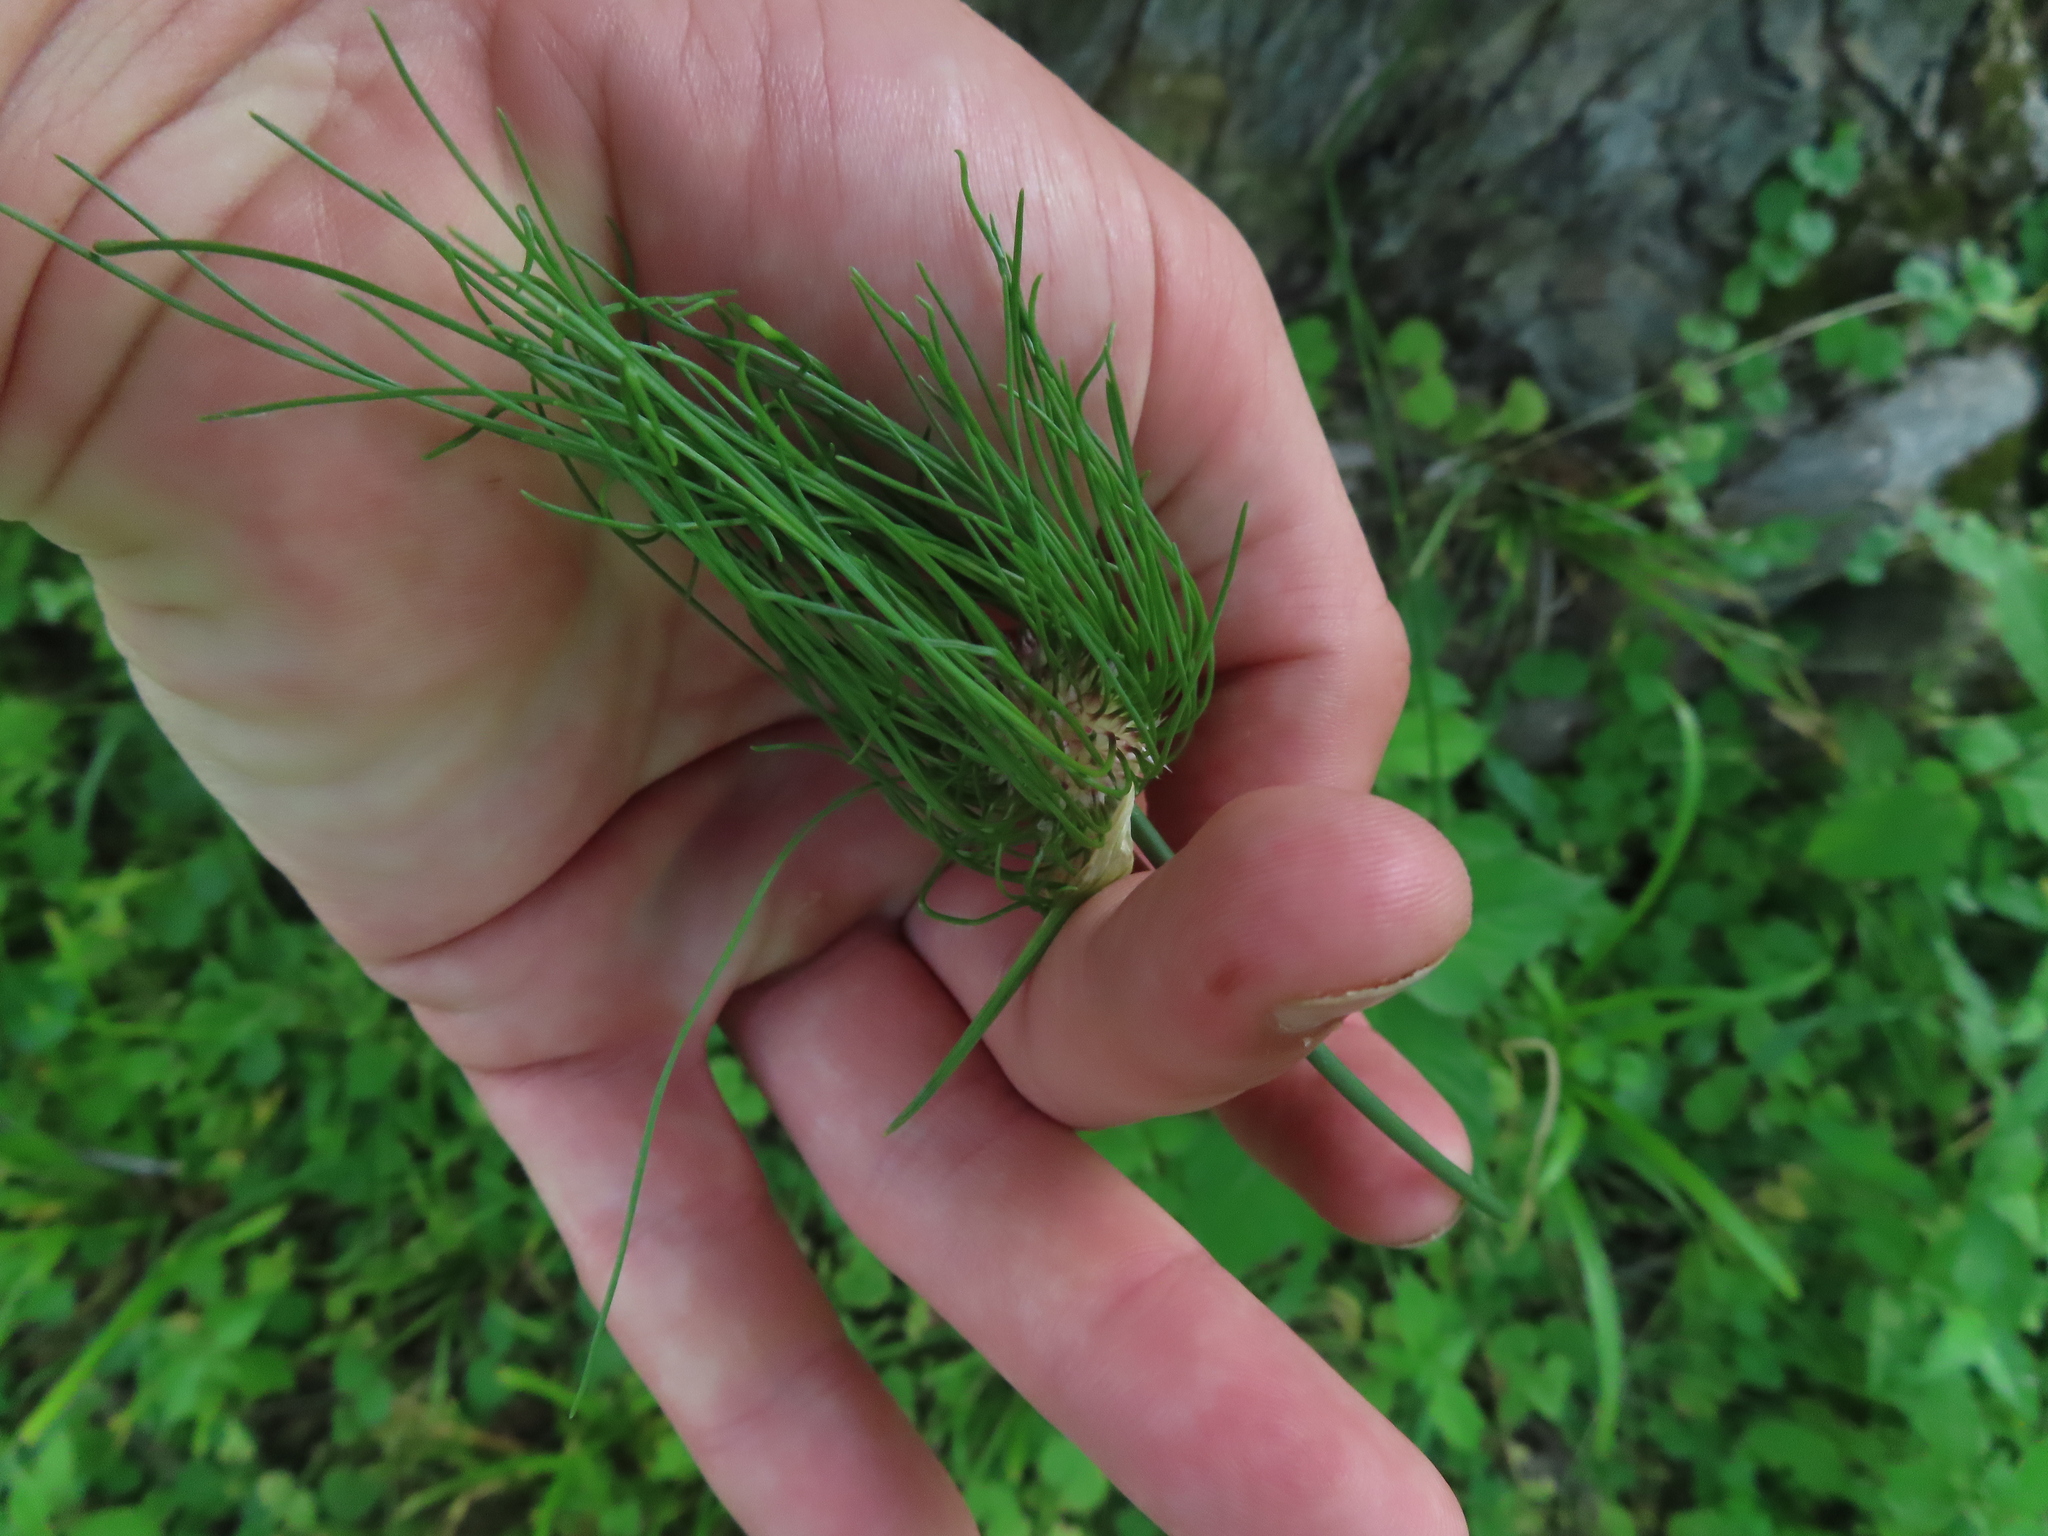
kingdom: Plantae
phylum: Tracheophyta
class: Liliopsida
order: Asparagales
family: Amaryllidaceae
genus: Allium
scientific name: Allium vineale
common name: Crow garlic
